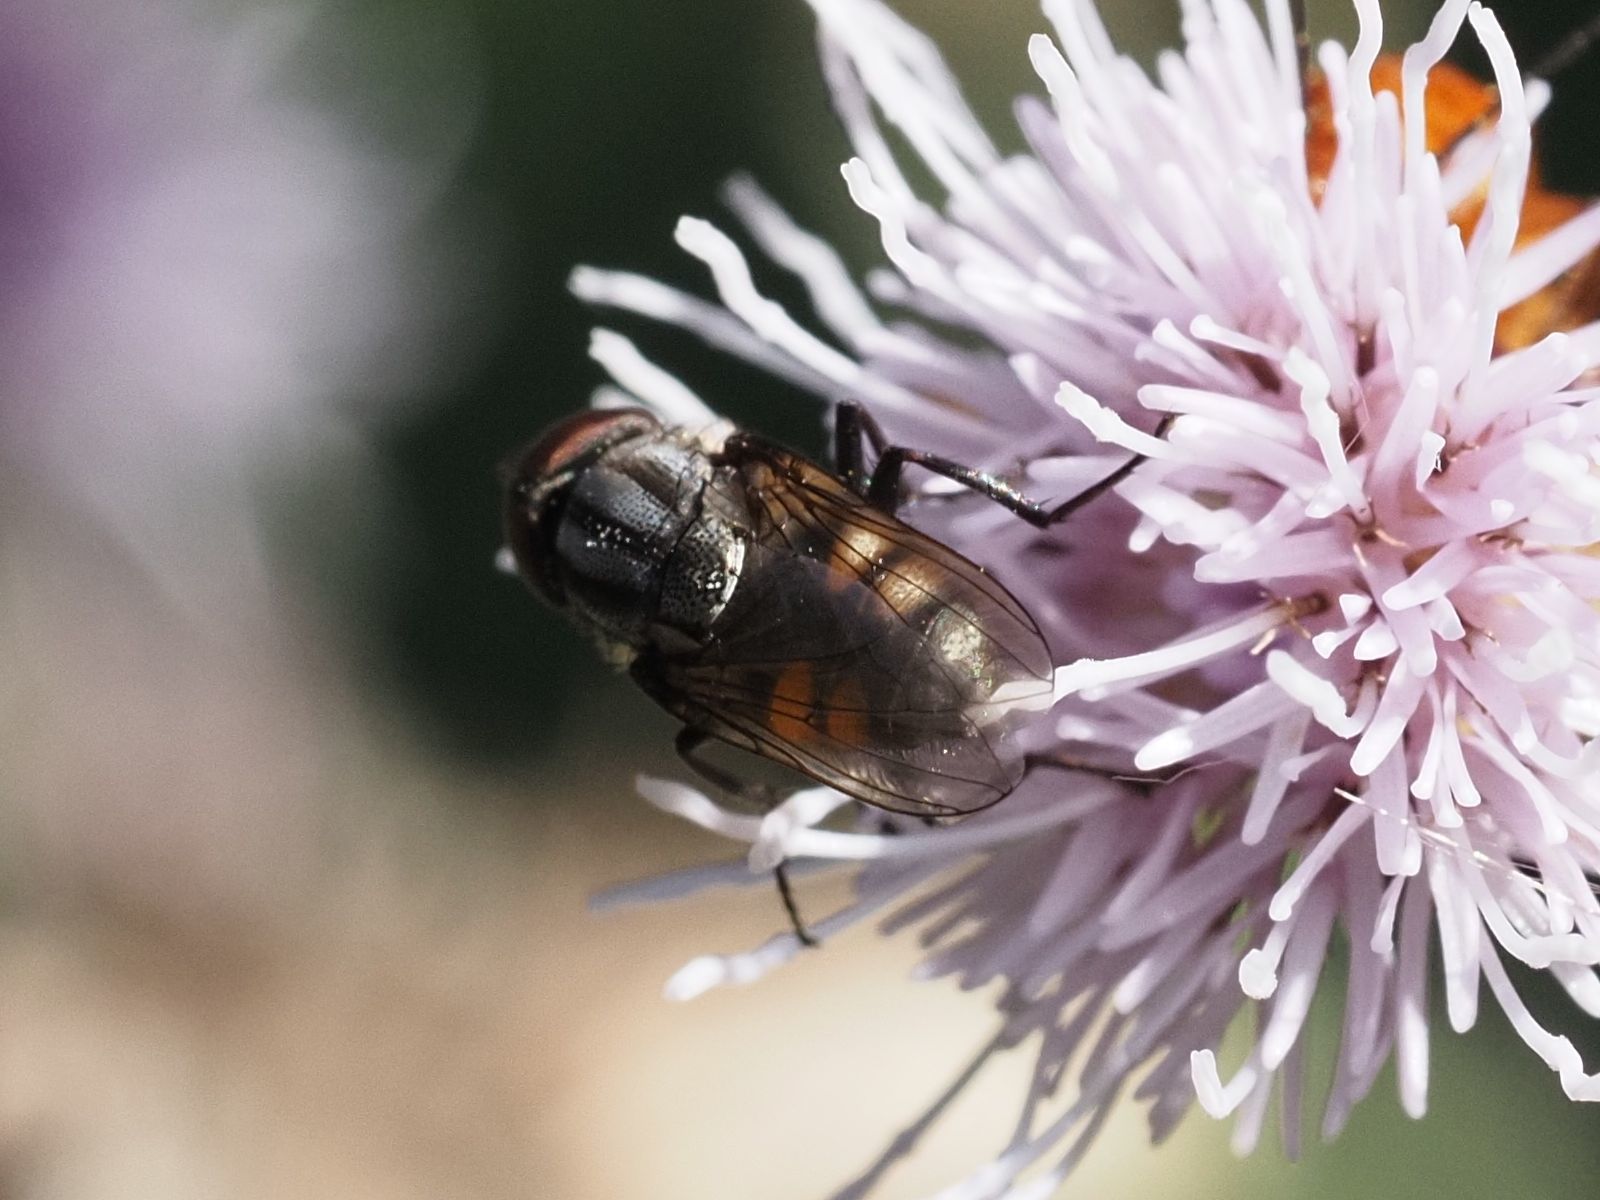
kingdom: Animalia
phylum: Arthropoda
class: Insecta
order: Diptera
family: Calliphoridae
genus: Stomorhina
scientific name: Stomorhina lunata
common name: Locust blowfly
